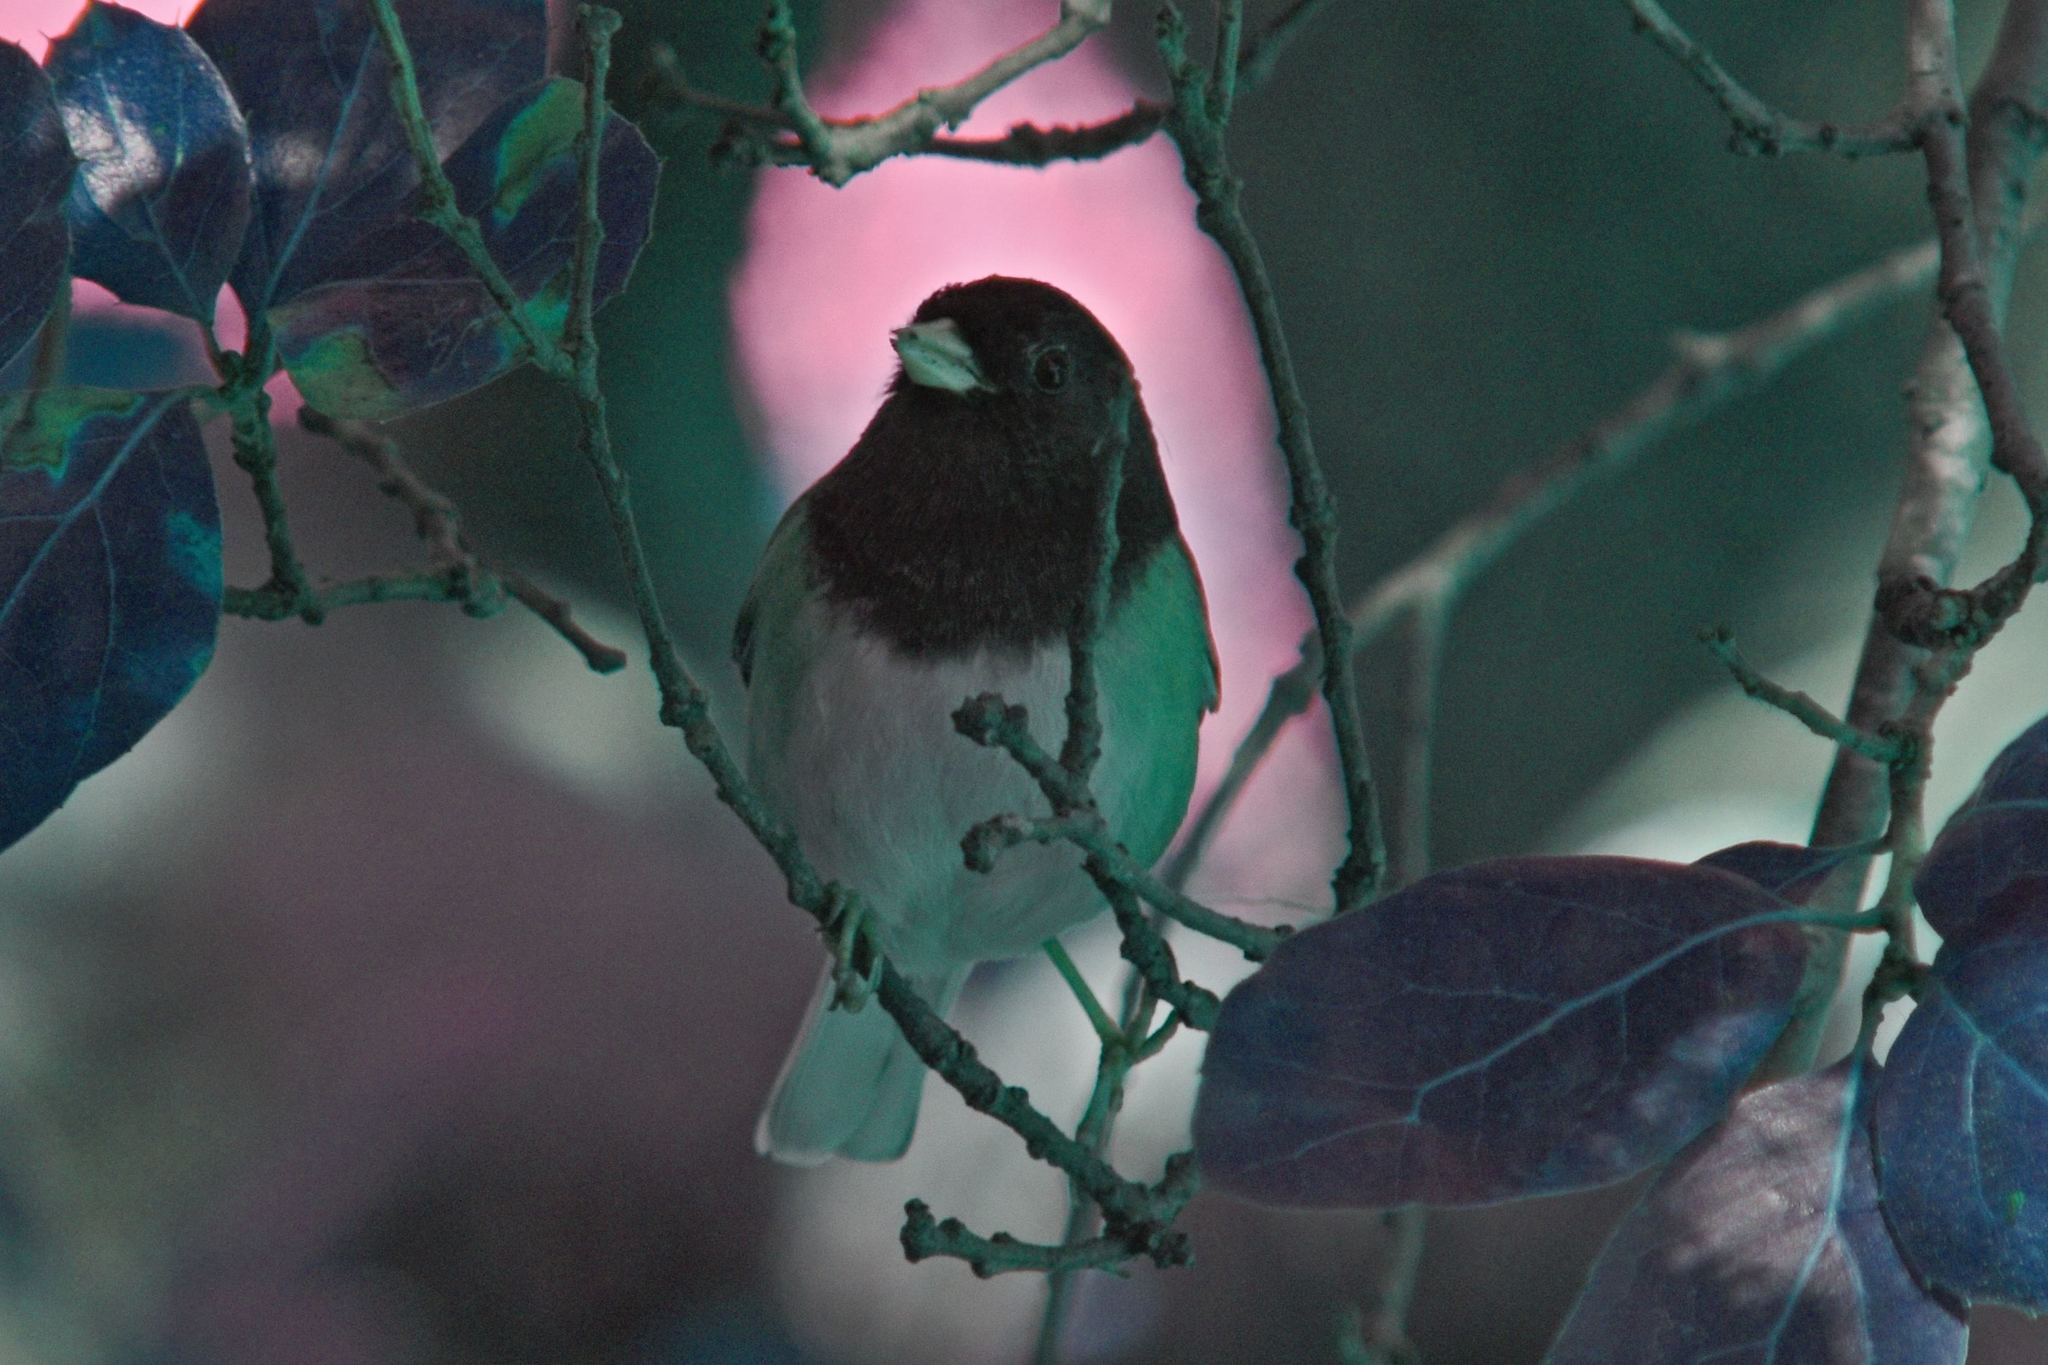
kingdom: Animalia
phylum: Chordata
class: Aves
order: Passeriformes
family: Passerellidae
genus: Junco
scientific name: Junco hyemalis
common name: Dark-eyed junco
